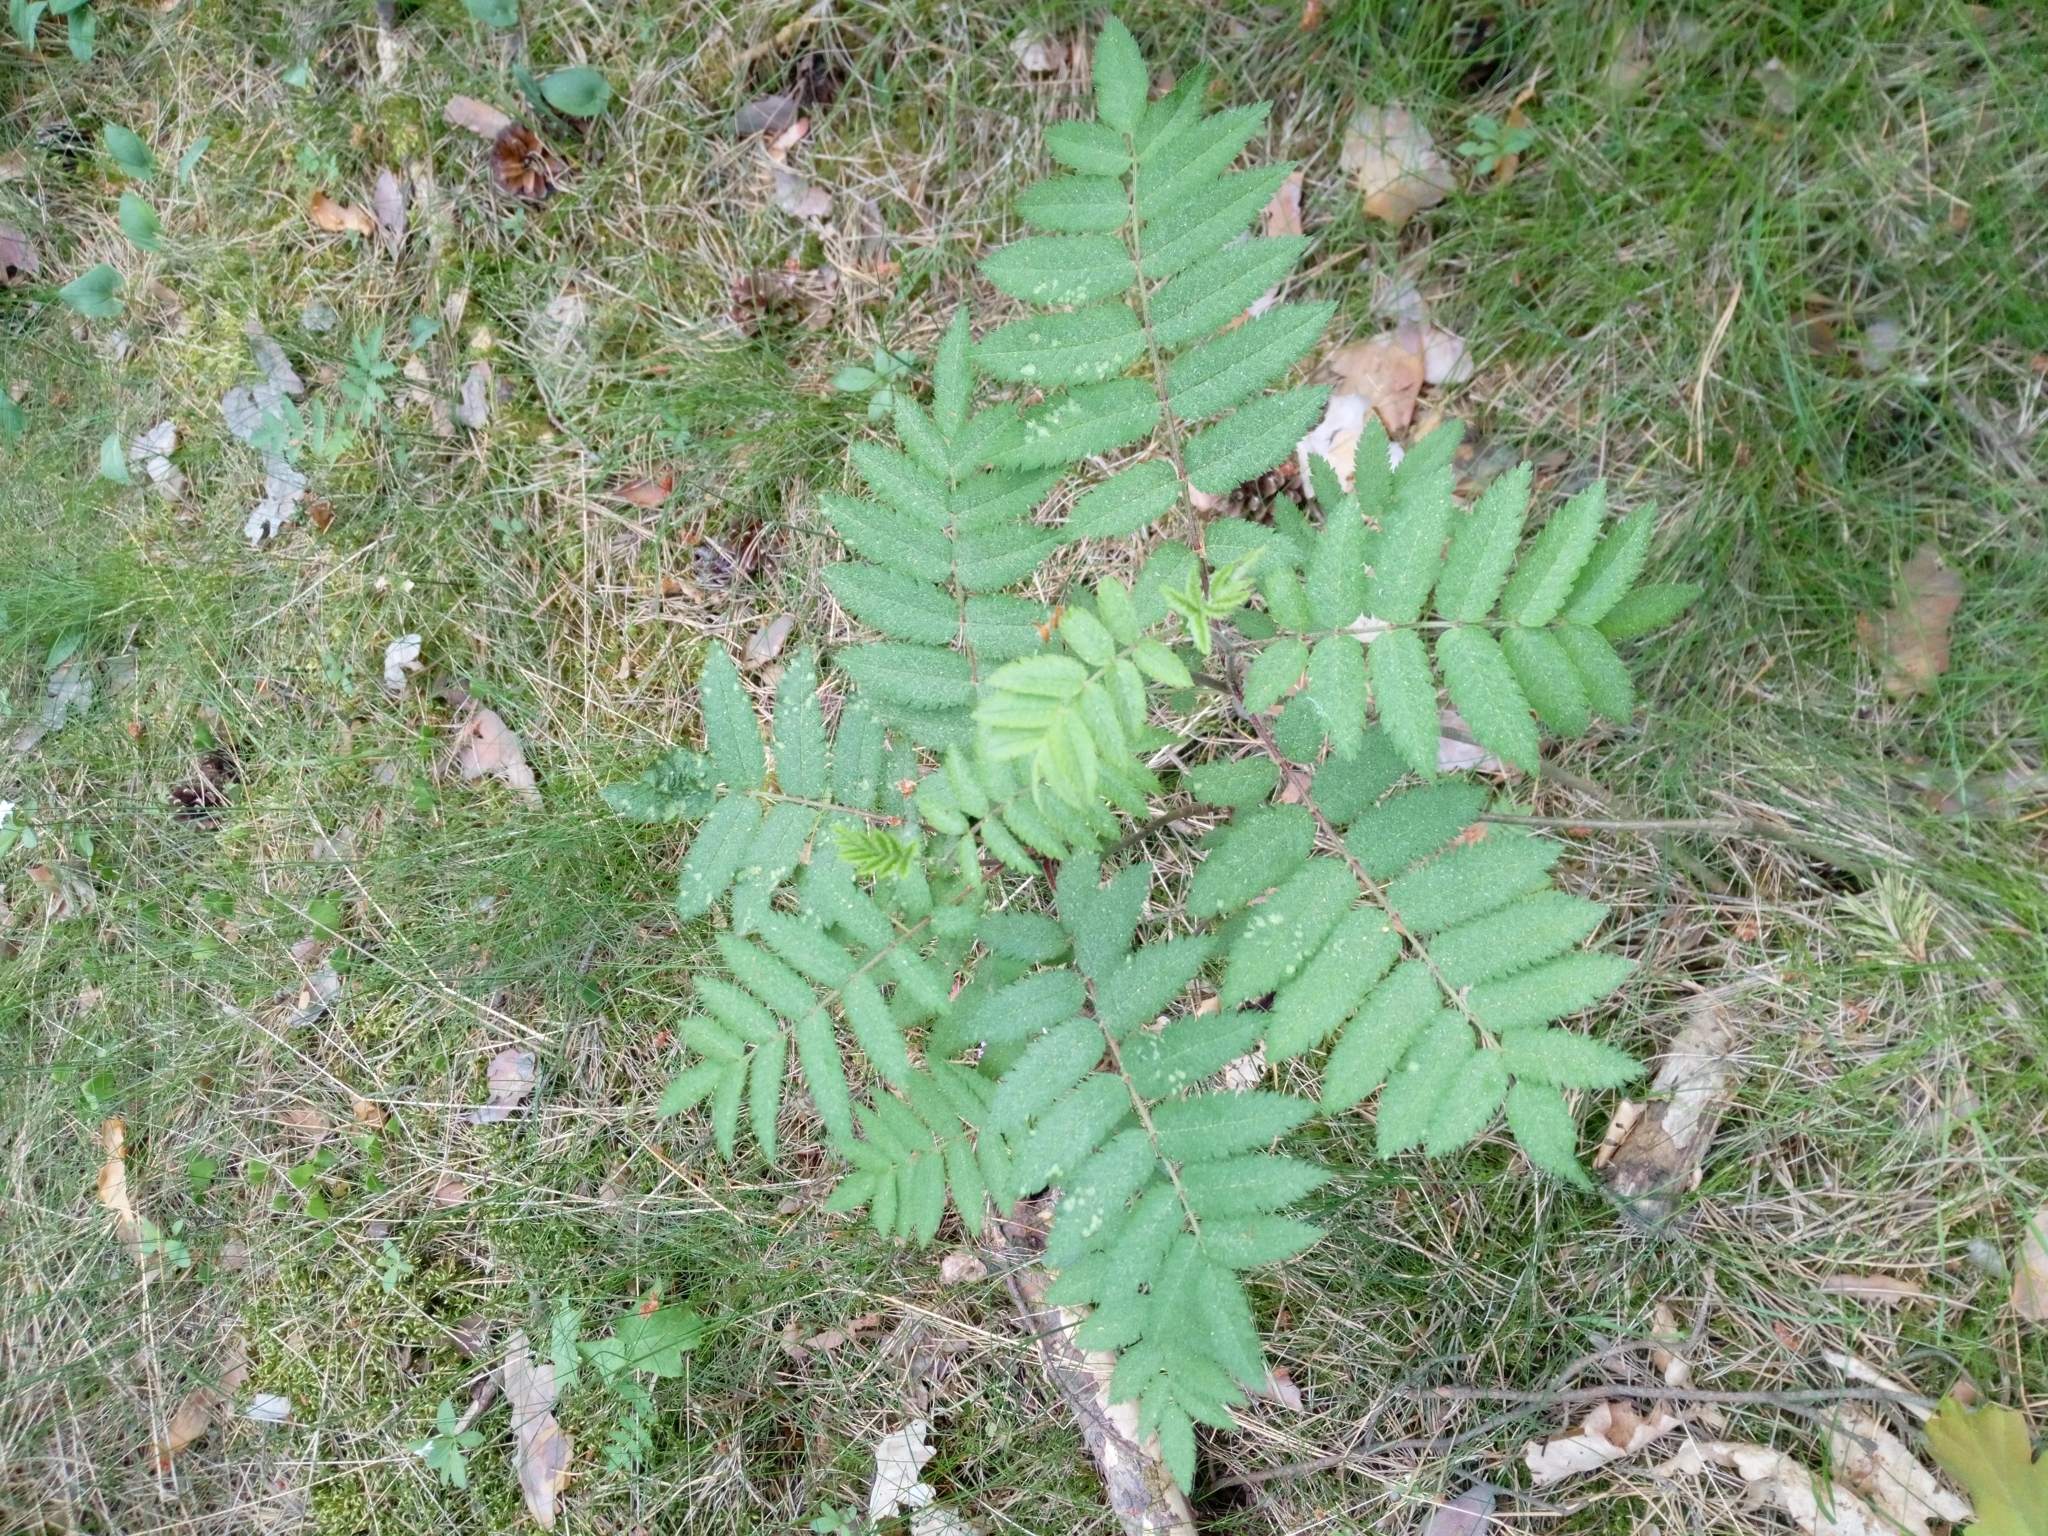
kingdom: Plantae
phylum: Tracheophyta
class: Magnoliopsida
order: Rosales
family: Rosaceae
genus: Sorbus
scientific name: Sorbus aucuparia
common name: Rowan
